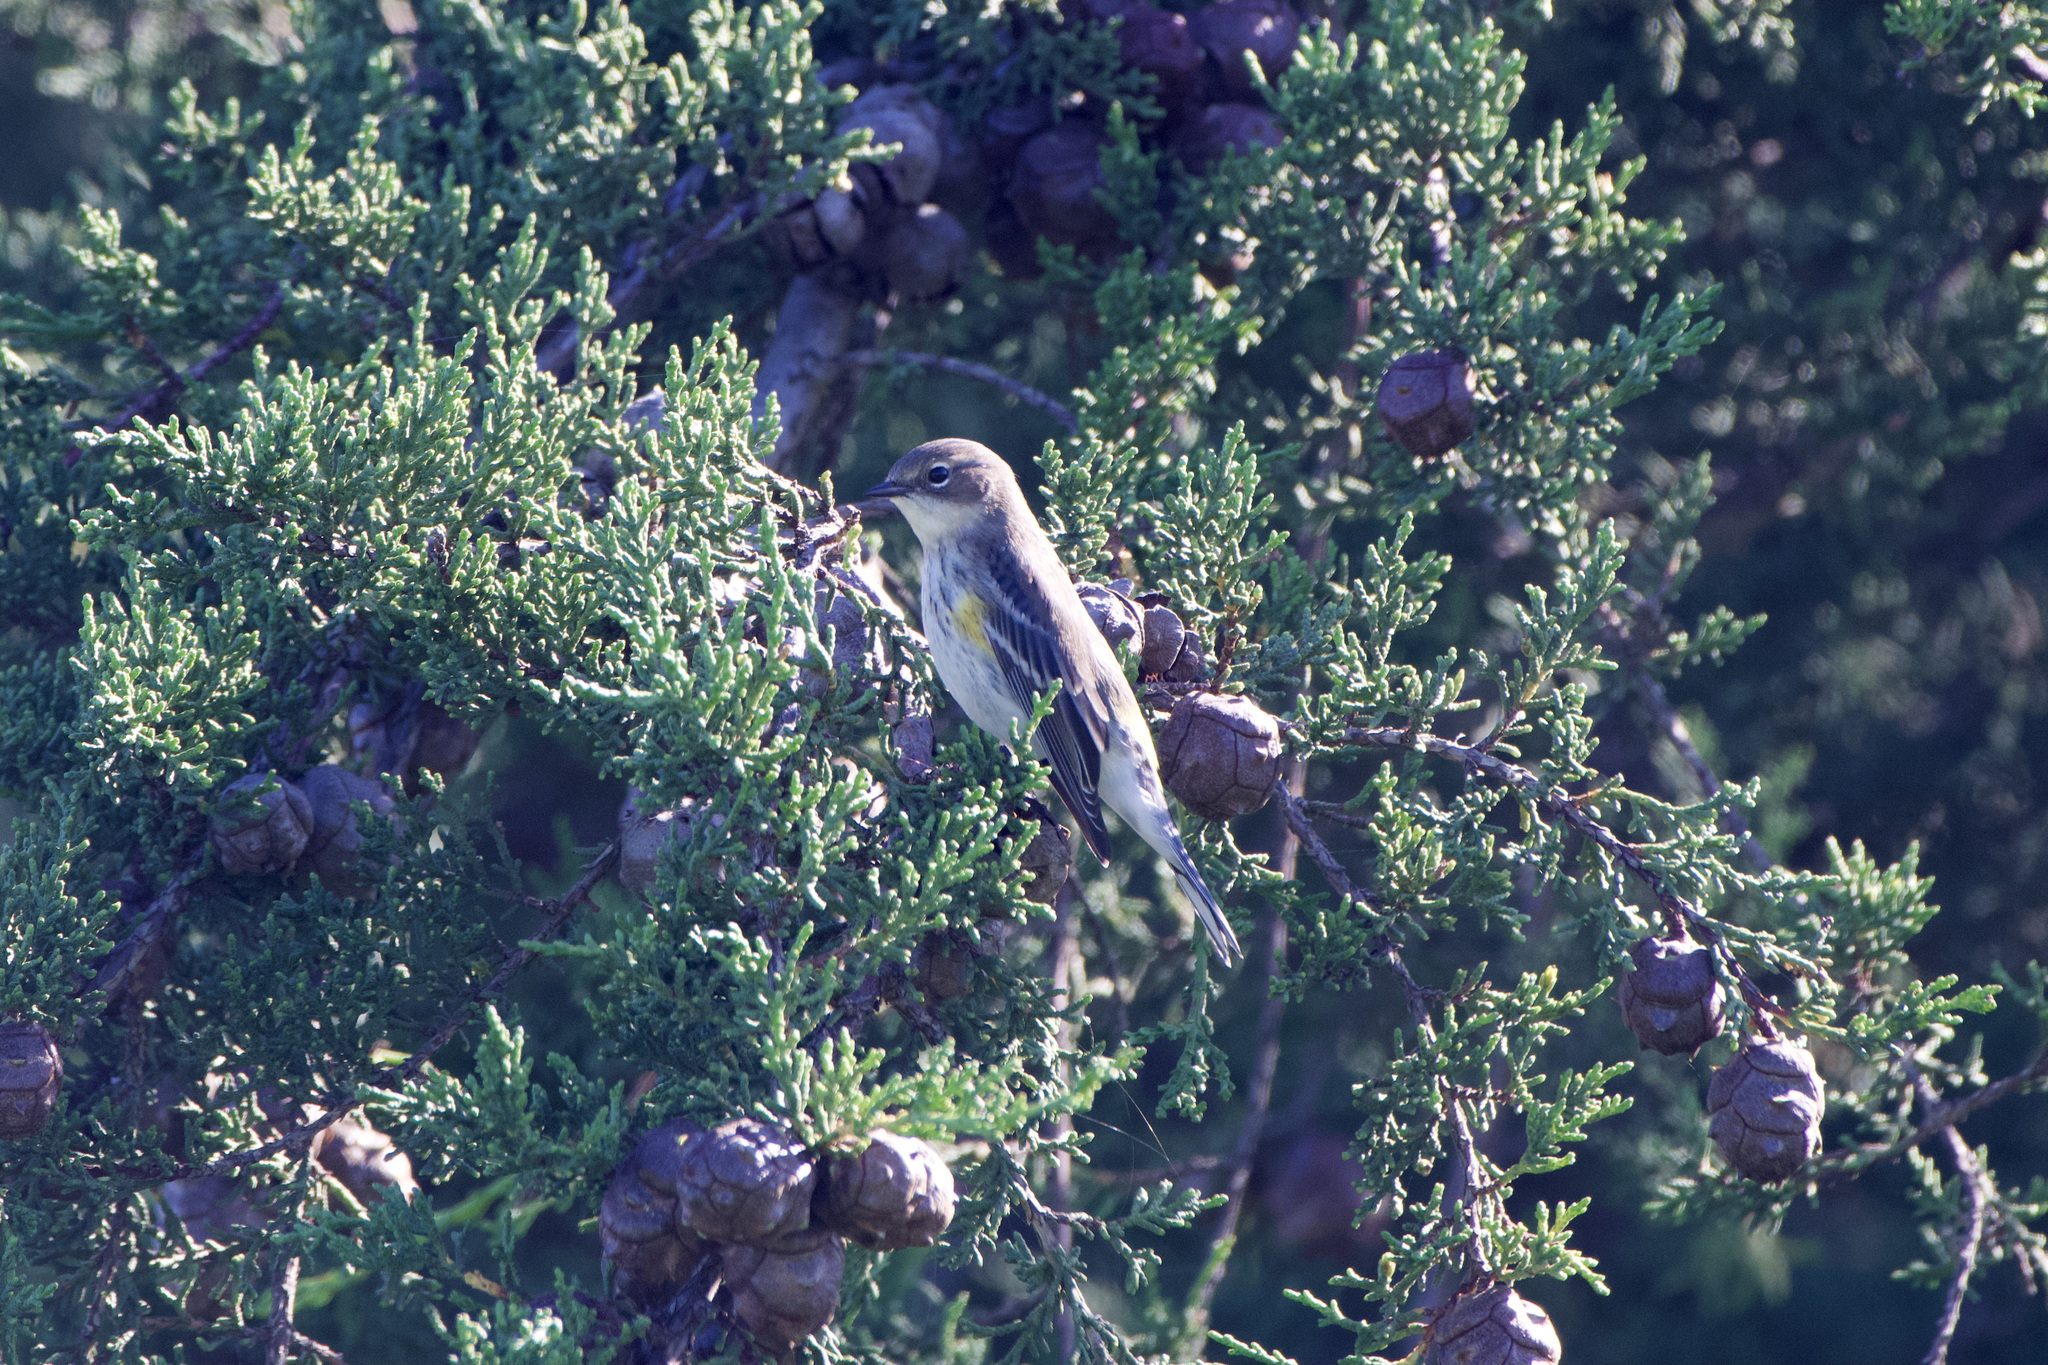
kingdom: Animalia
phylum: Chordata
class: Aves
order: Passeriformes
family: Parulidae
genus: Setophaga
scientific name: Setophaga coronata
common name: Myrtle warbler
